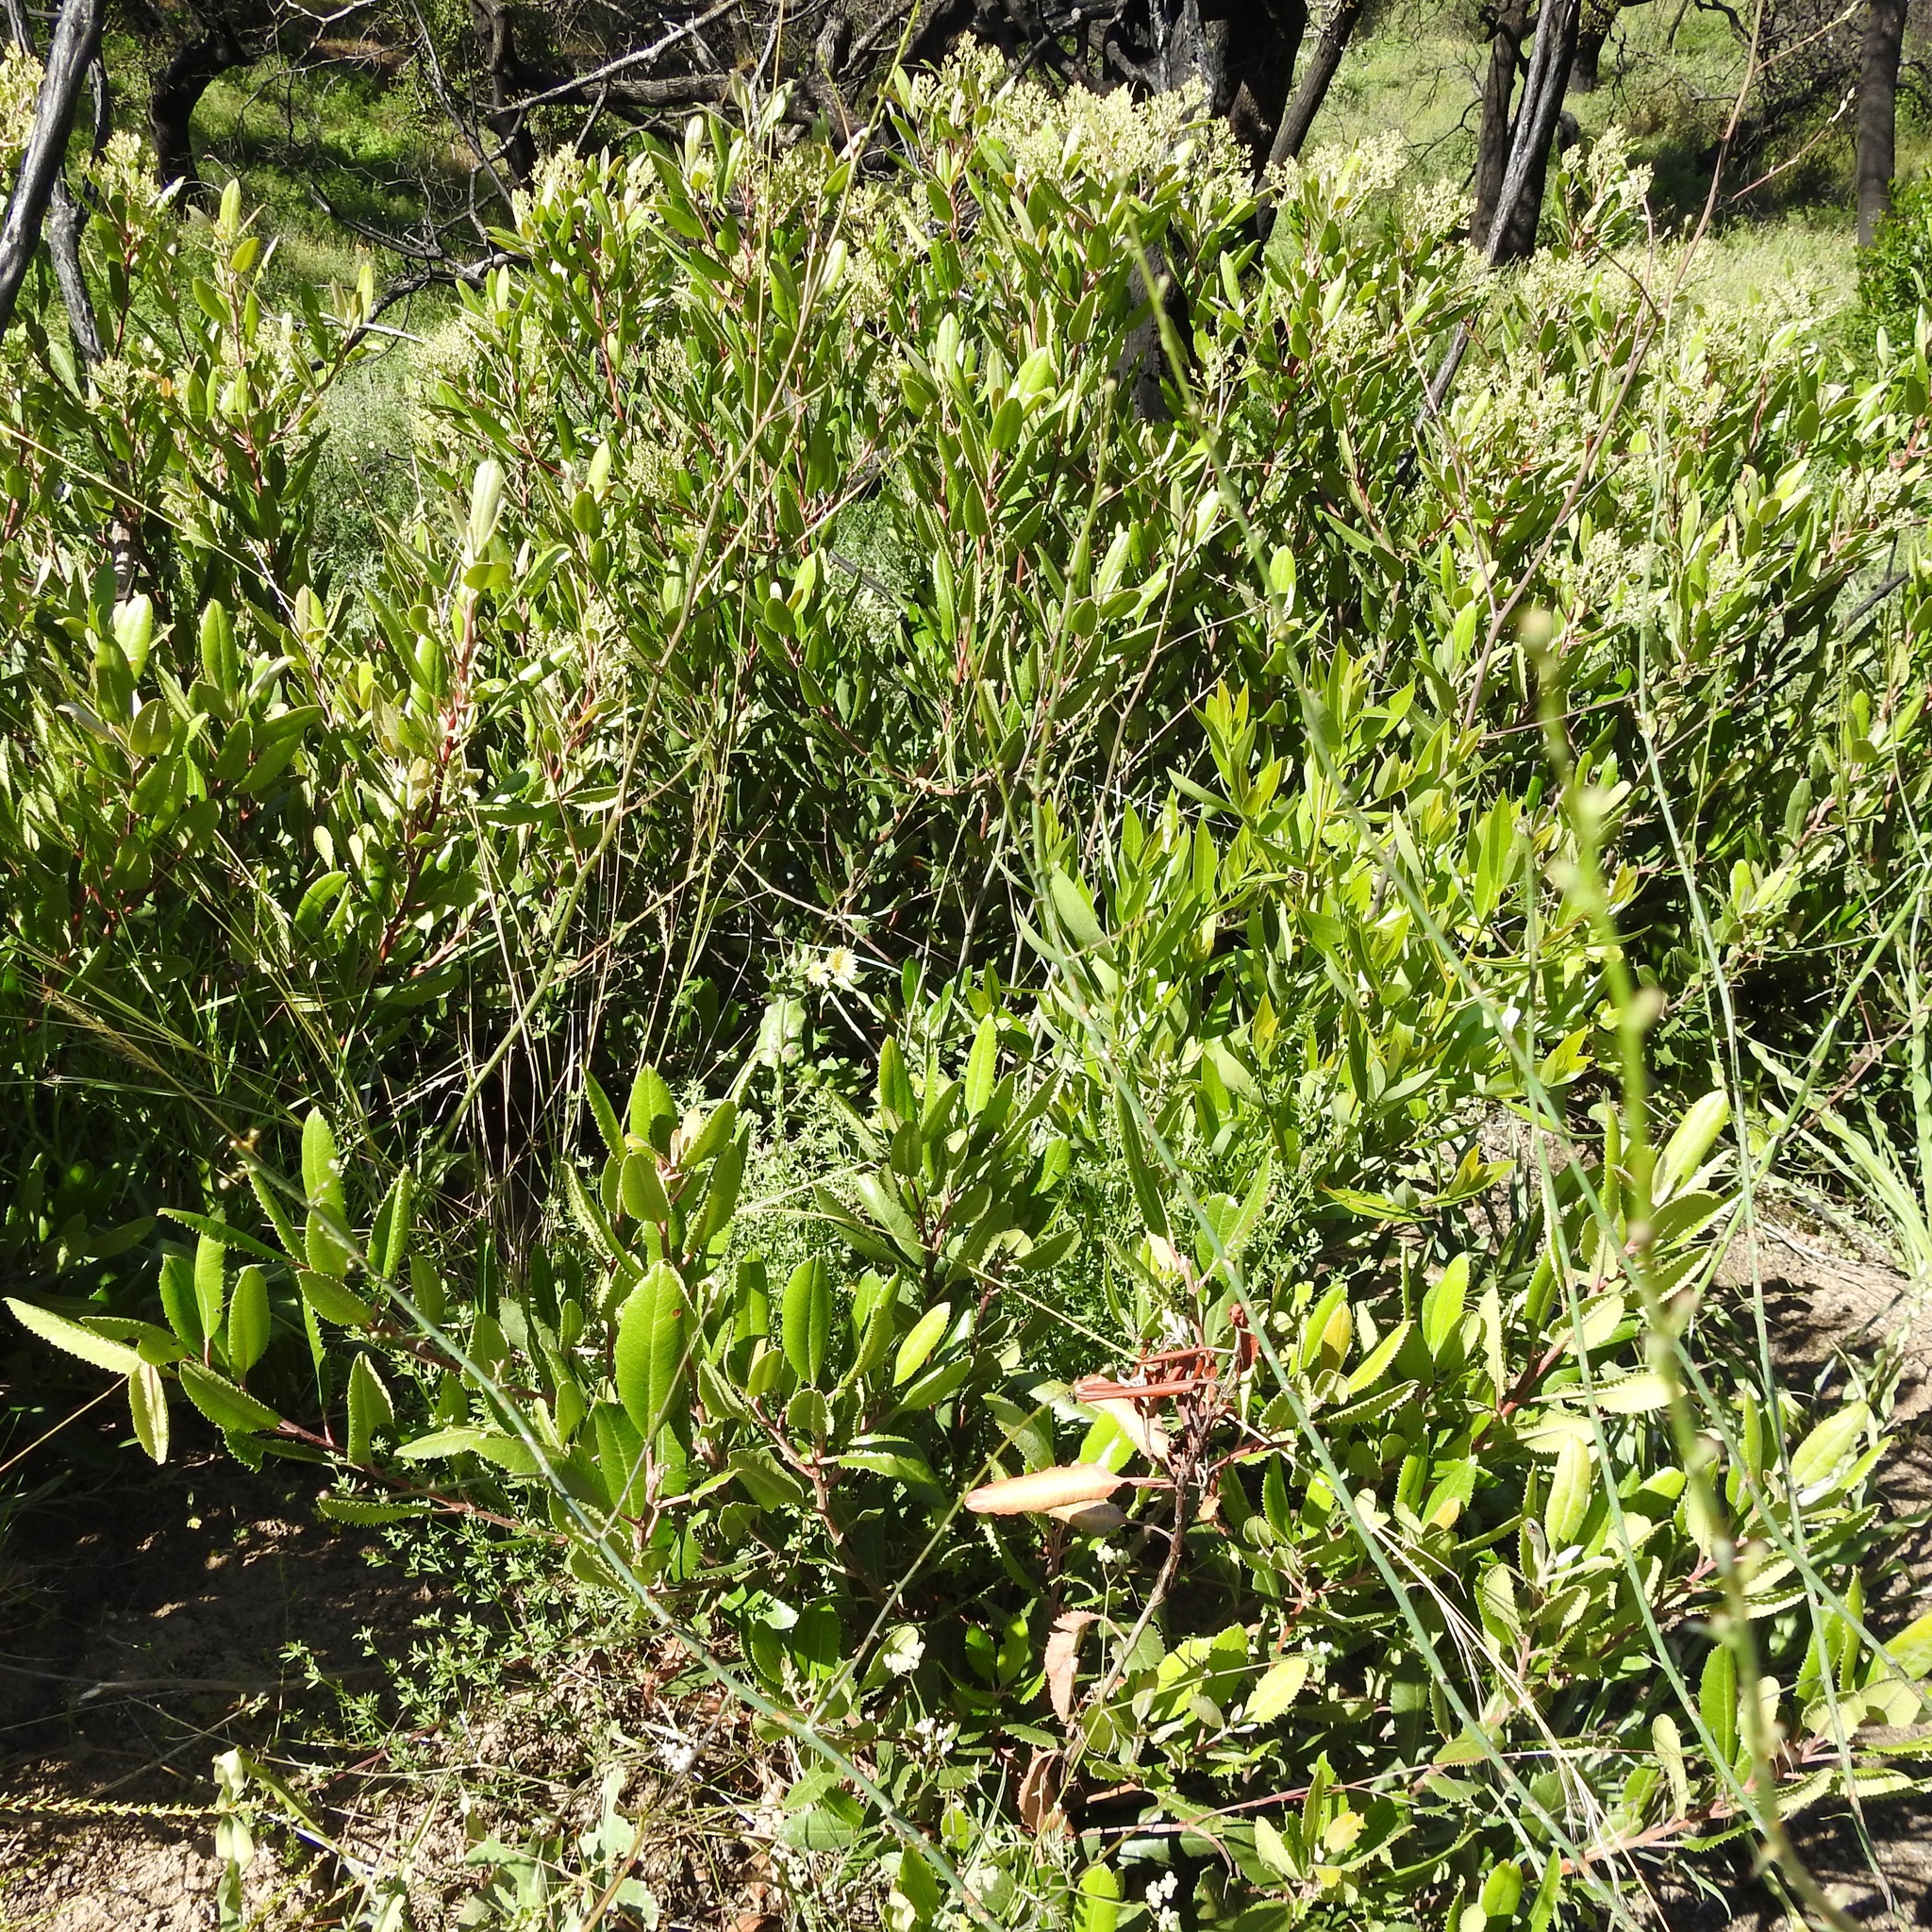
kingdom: Plantae
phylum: Tracheophyta
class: Magnoliopsida
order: Rosales
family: Rosaceae
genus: Heteromeles
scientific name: Heteromeles arbutifolia
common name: California-holly
